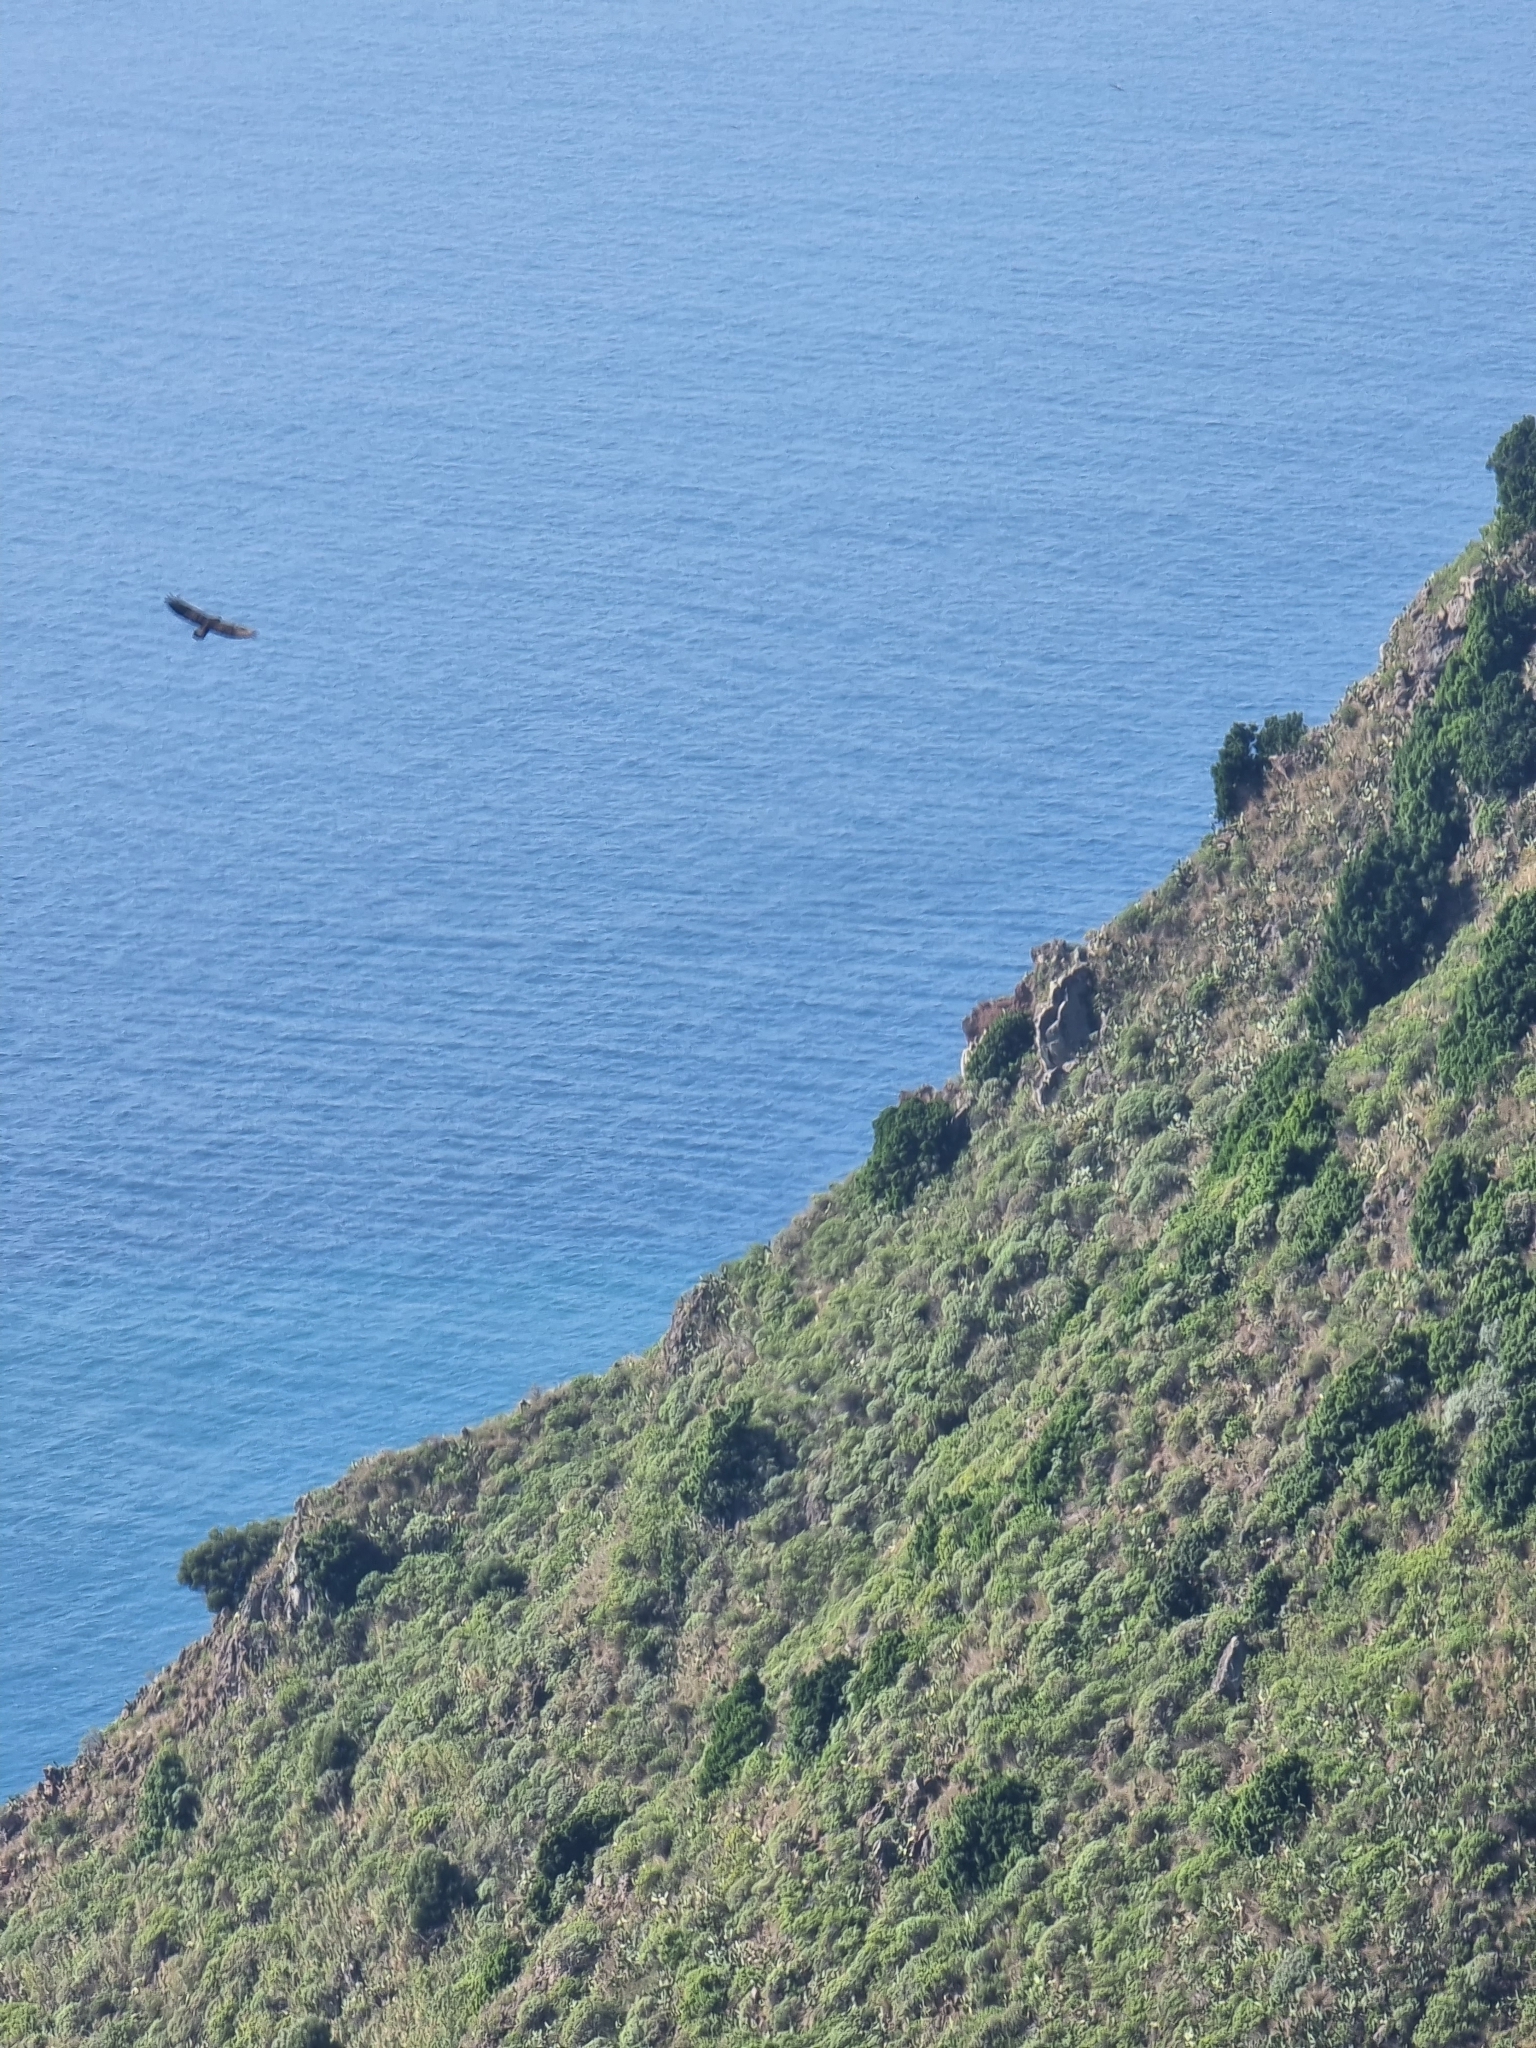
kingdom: Animalia
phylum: Chordata
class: Aves
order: Accipitriformes
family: Accipitridae
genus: Buteo
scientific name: Buteo buteo
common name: Common buzzard
